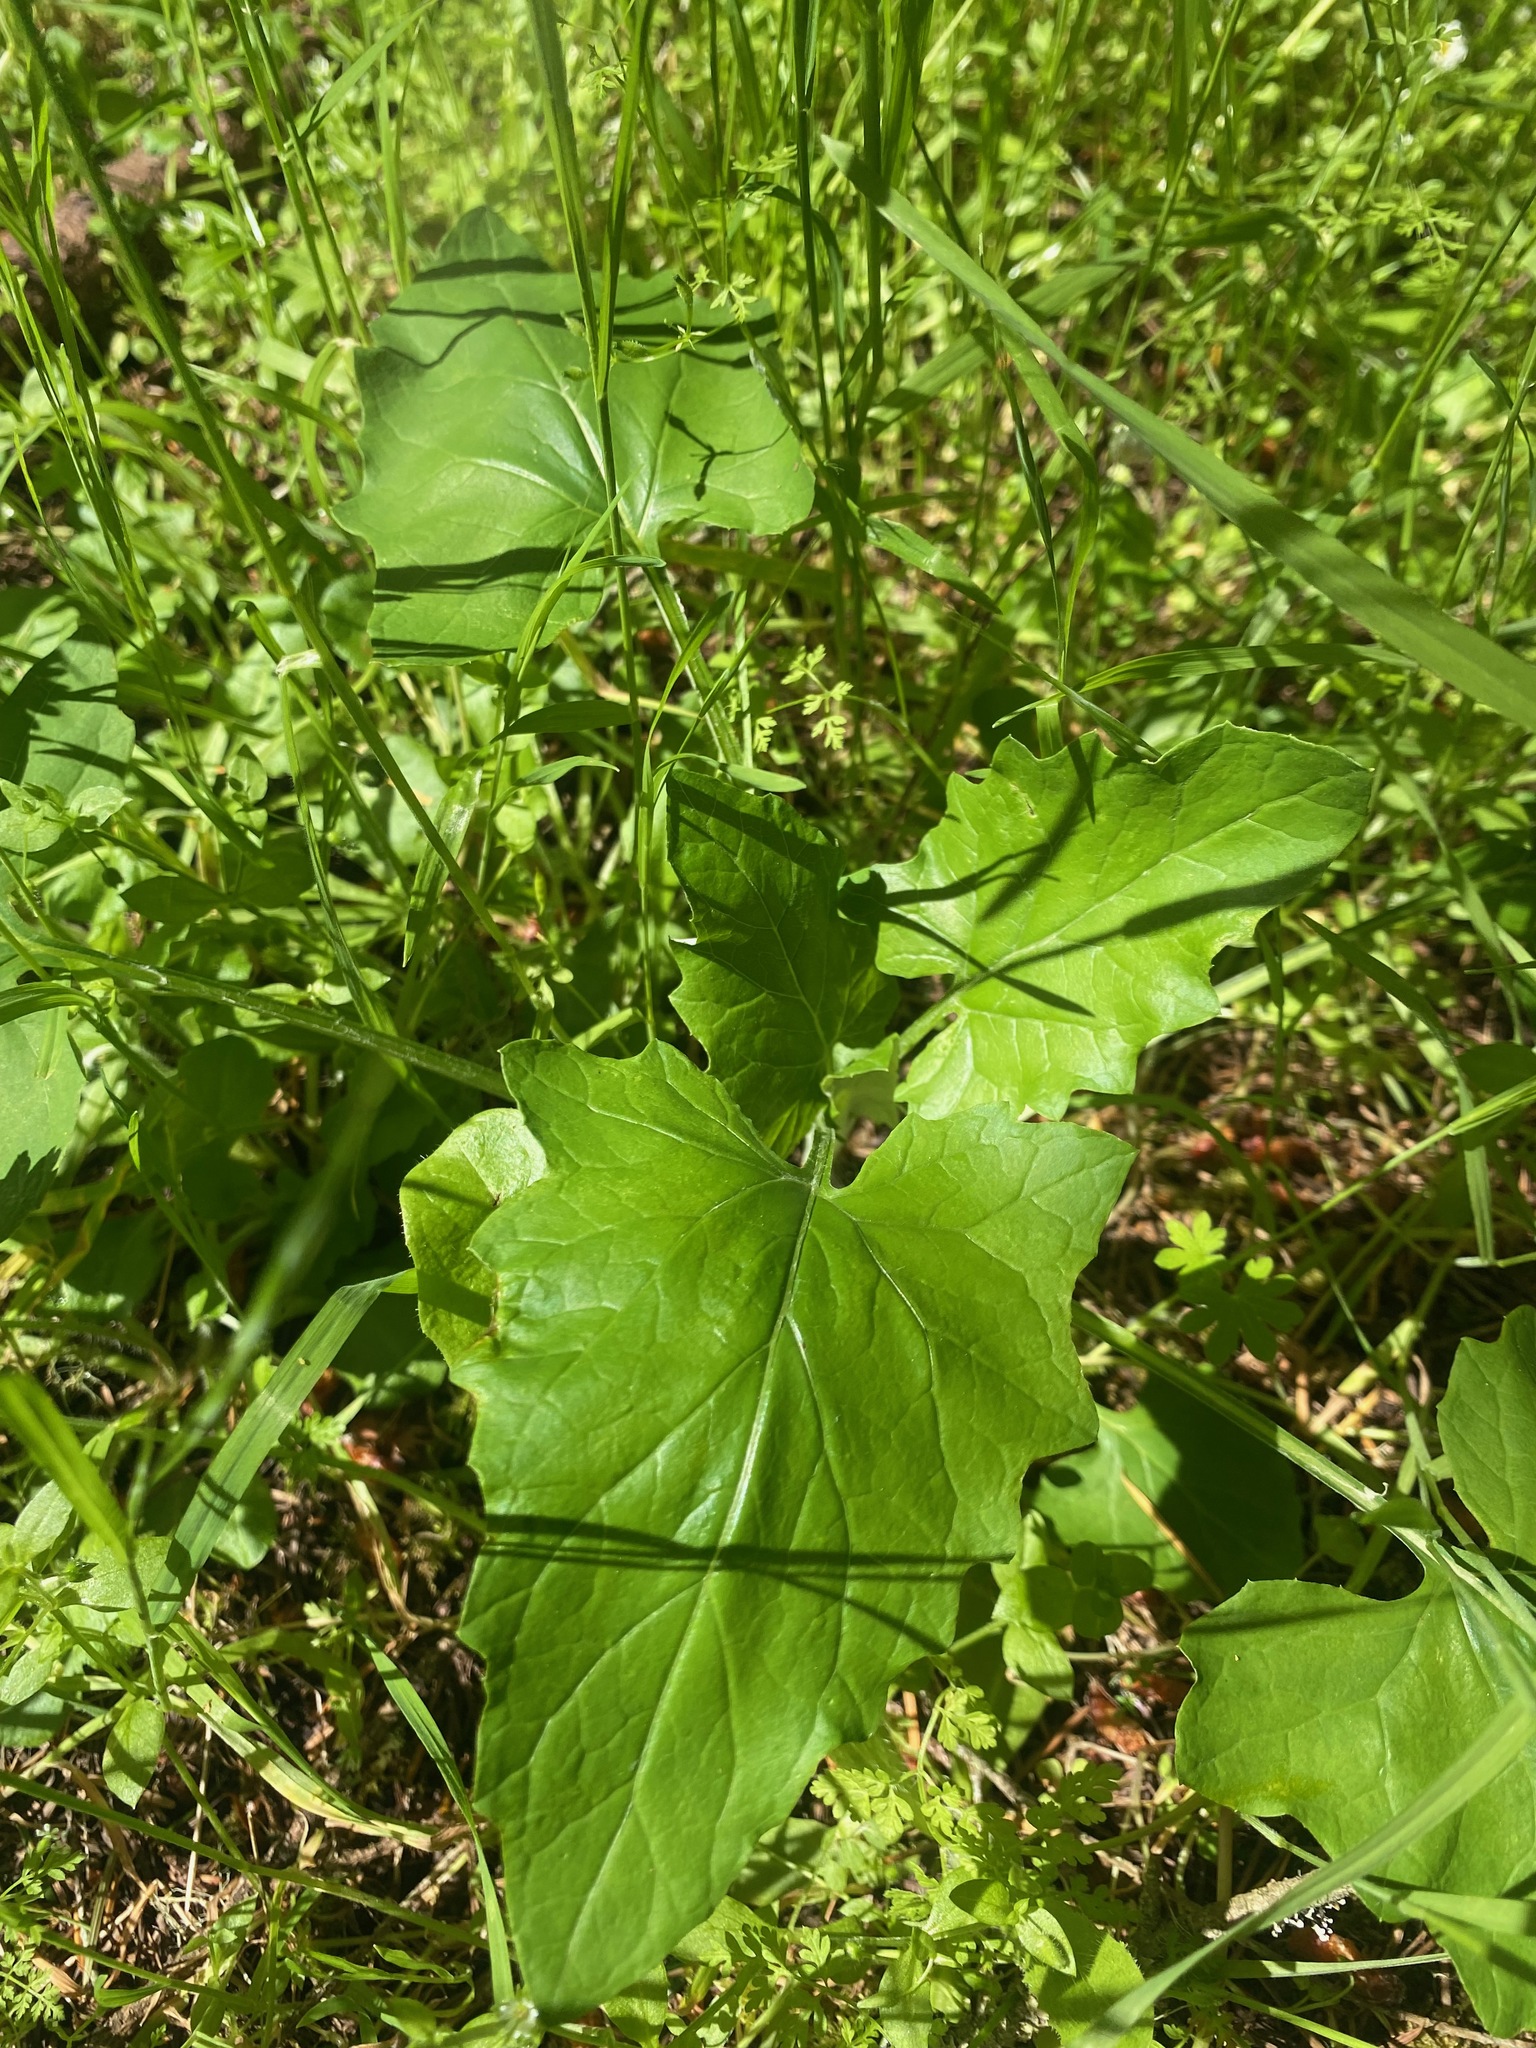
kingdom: Plantae
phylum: Tracheophyta
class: Magnoliopsida
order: Asterales
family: Asteraceae
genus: Adenocaulon
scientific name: Adenocaulon bicolor
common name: Trailplant
